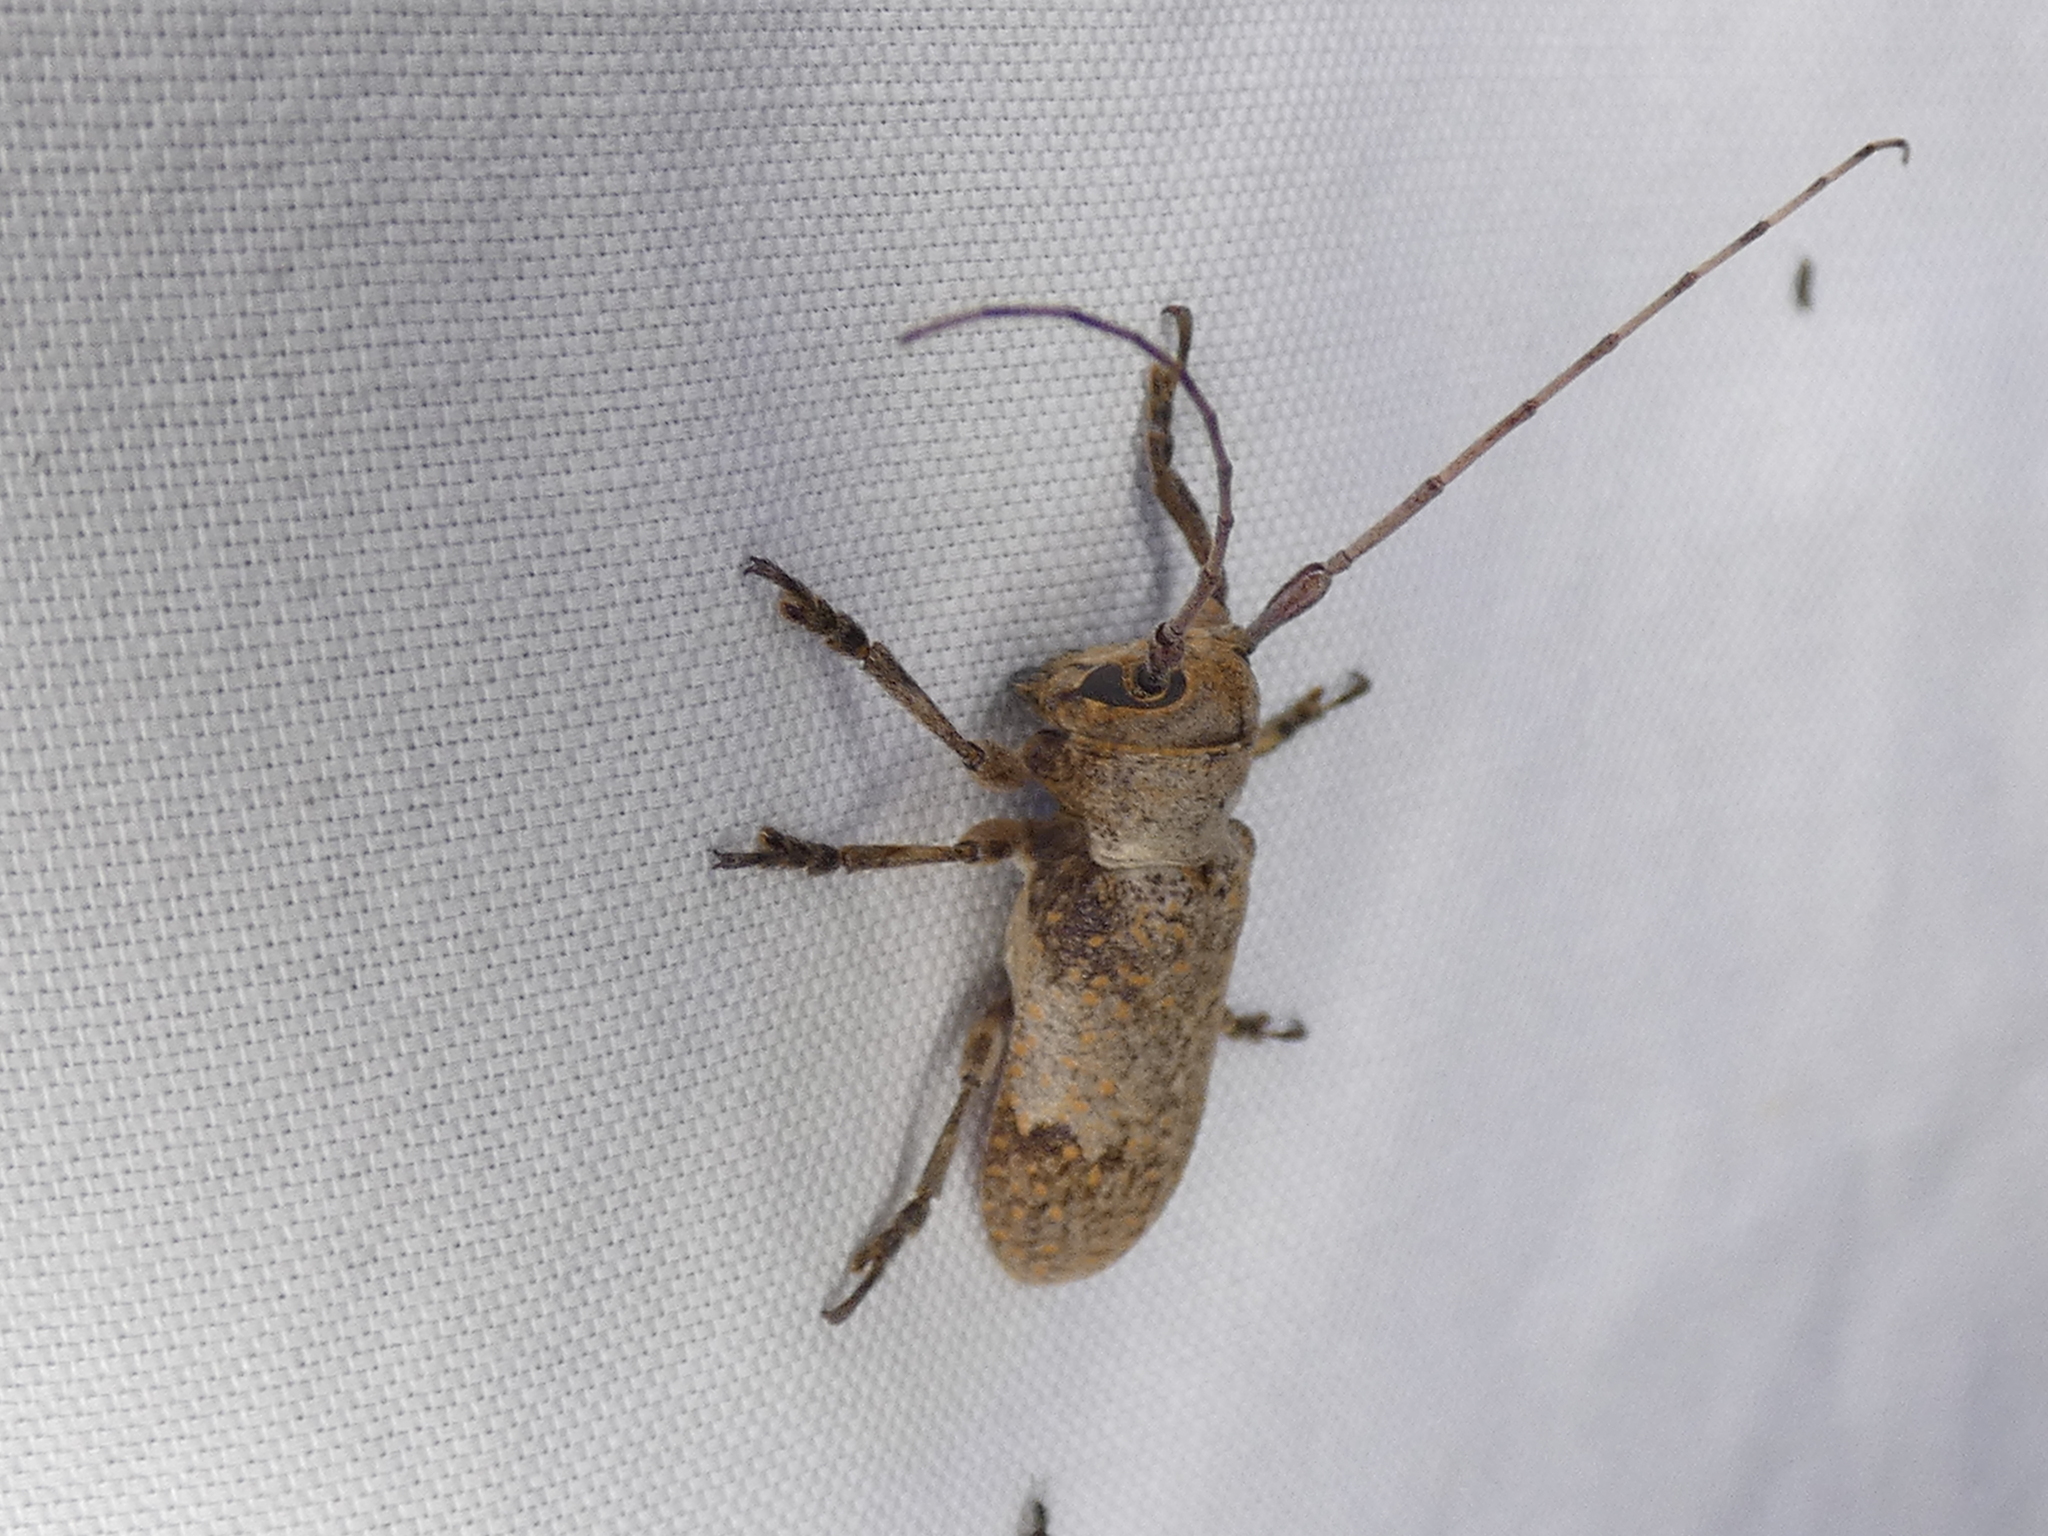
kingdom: Animalia
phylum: Arthropoda
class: Insecta
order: Coleoptera
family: Cerambycidae
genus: Oncideres
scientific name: Oncideres cingulata
